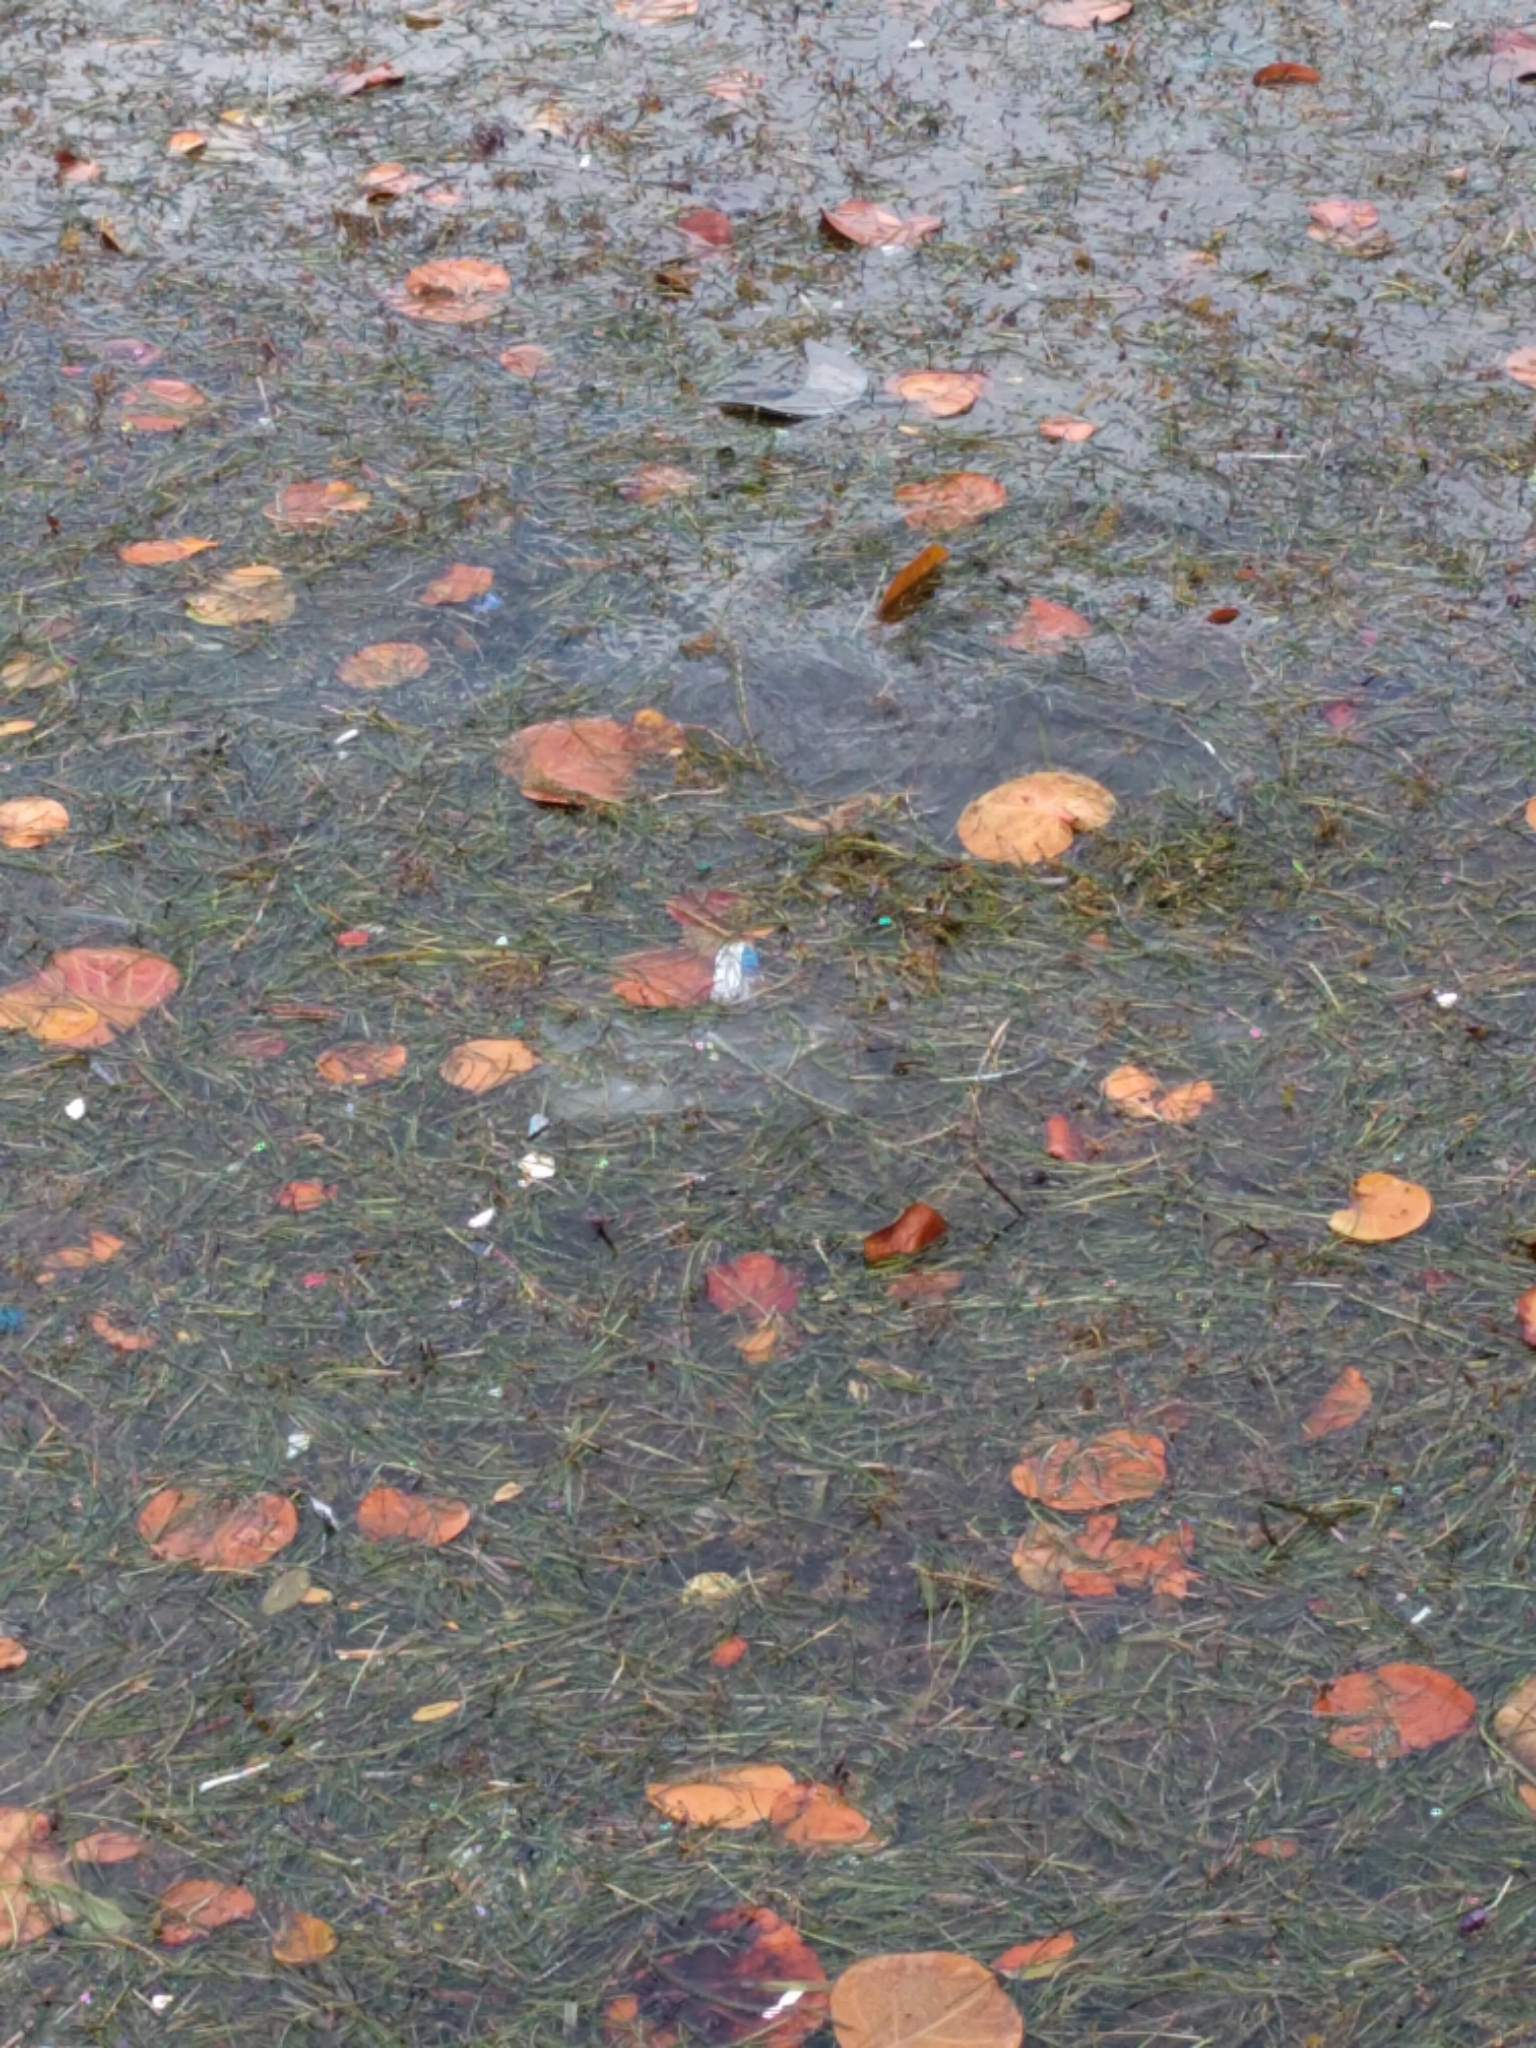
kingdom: Animalia
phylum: Chordata
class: Mammalia
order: Sirenia
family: Trichechidae
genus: Trichechus
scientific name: Trichechus manatus
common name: West indian manatee
